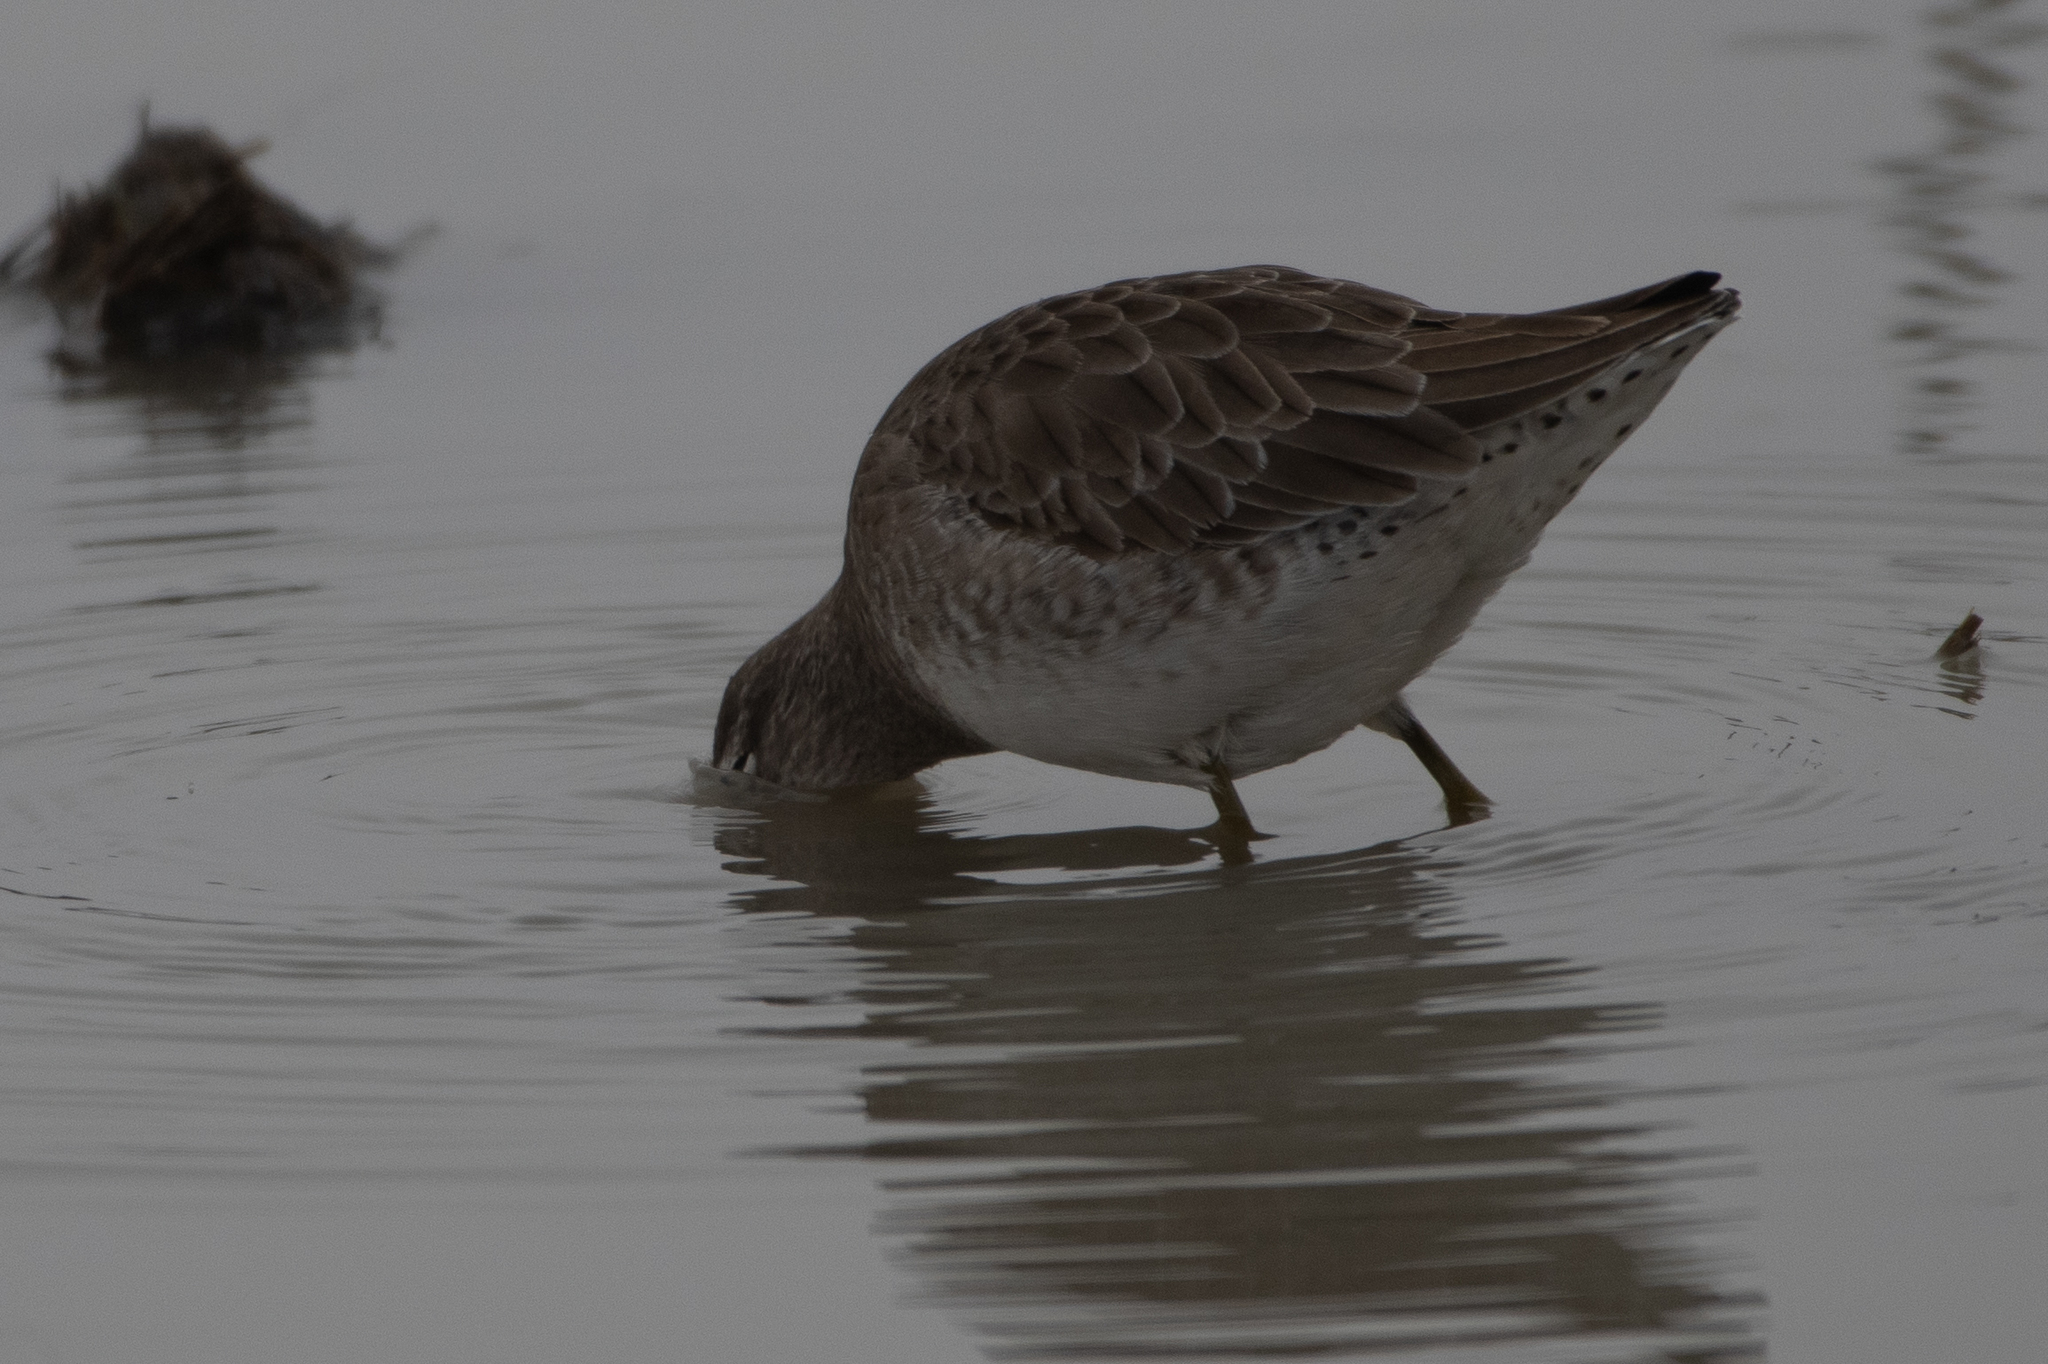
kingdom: Animalia
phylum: Chordata
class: Aves
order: Charadriiformes
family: Scolopacidae
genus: Limnodromus
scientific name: Limnodromus scolopaceus
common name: Long-billed dowitcher
